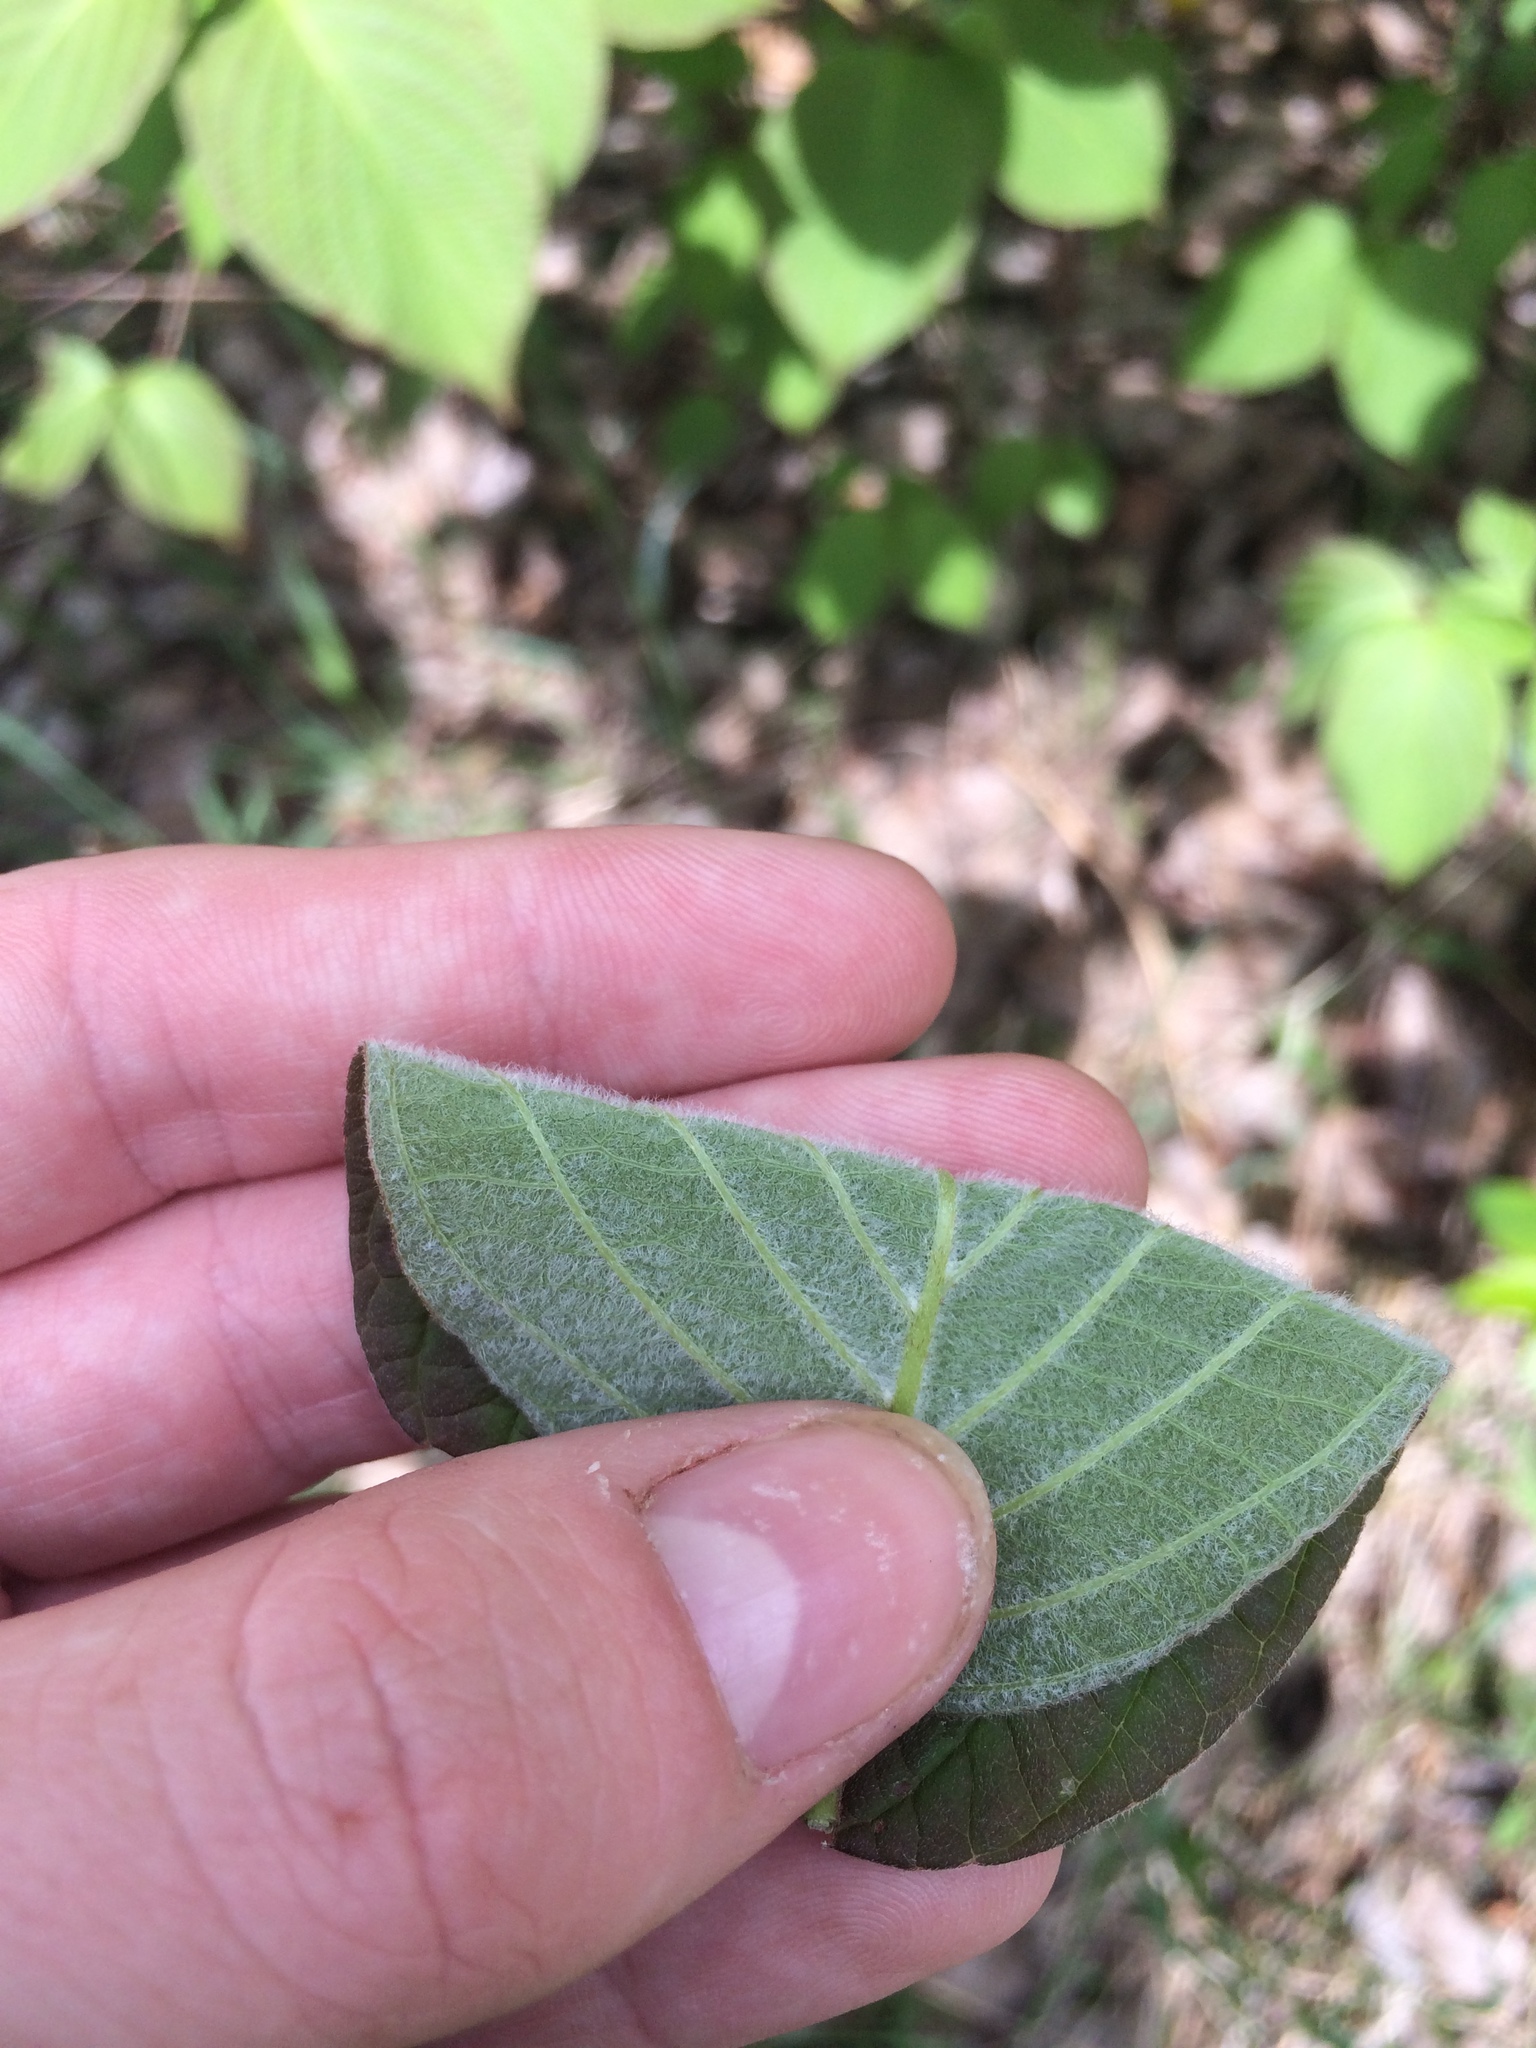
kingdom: Plantae
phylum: Tracheophyta
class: Magnoliopsida
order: Cornales
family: Cornaceae
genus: Cornus
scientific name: Cornus rugosa
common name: Round-leaf dogwood
